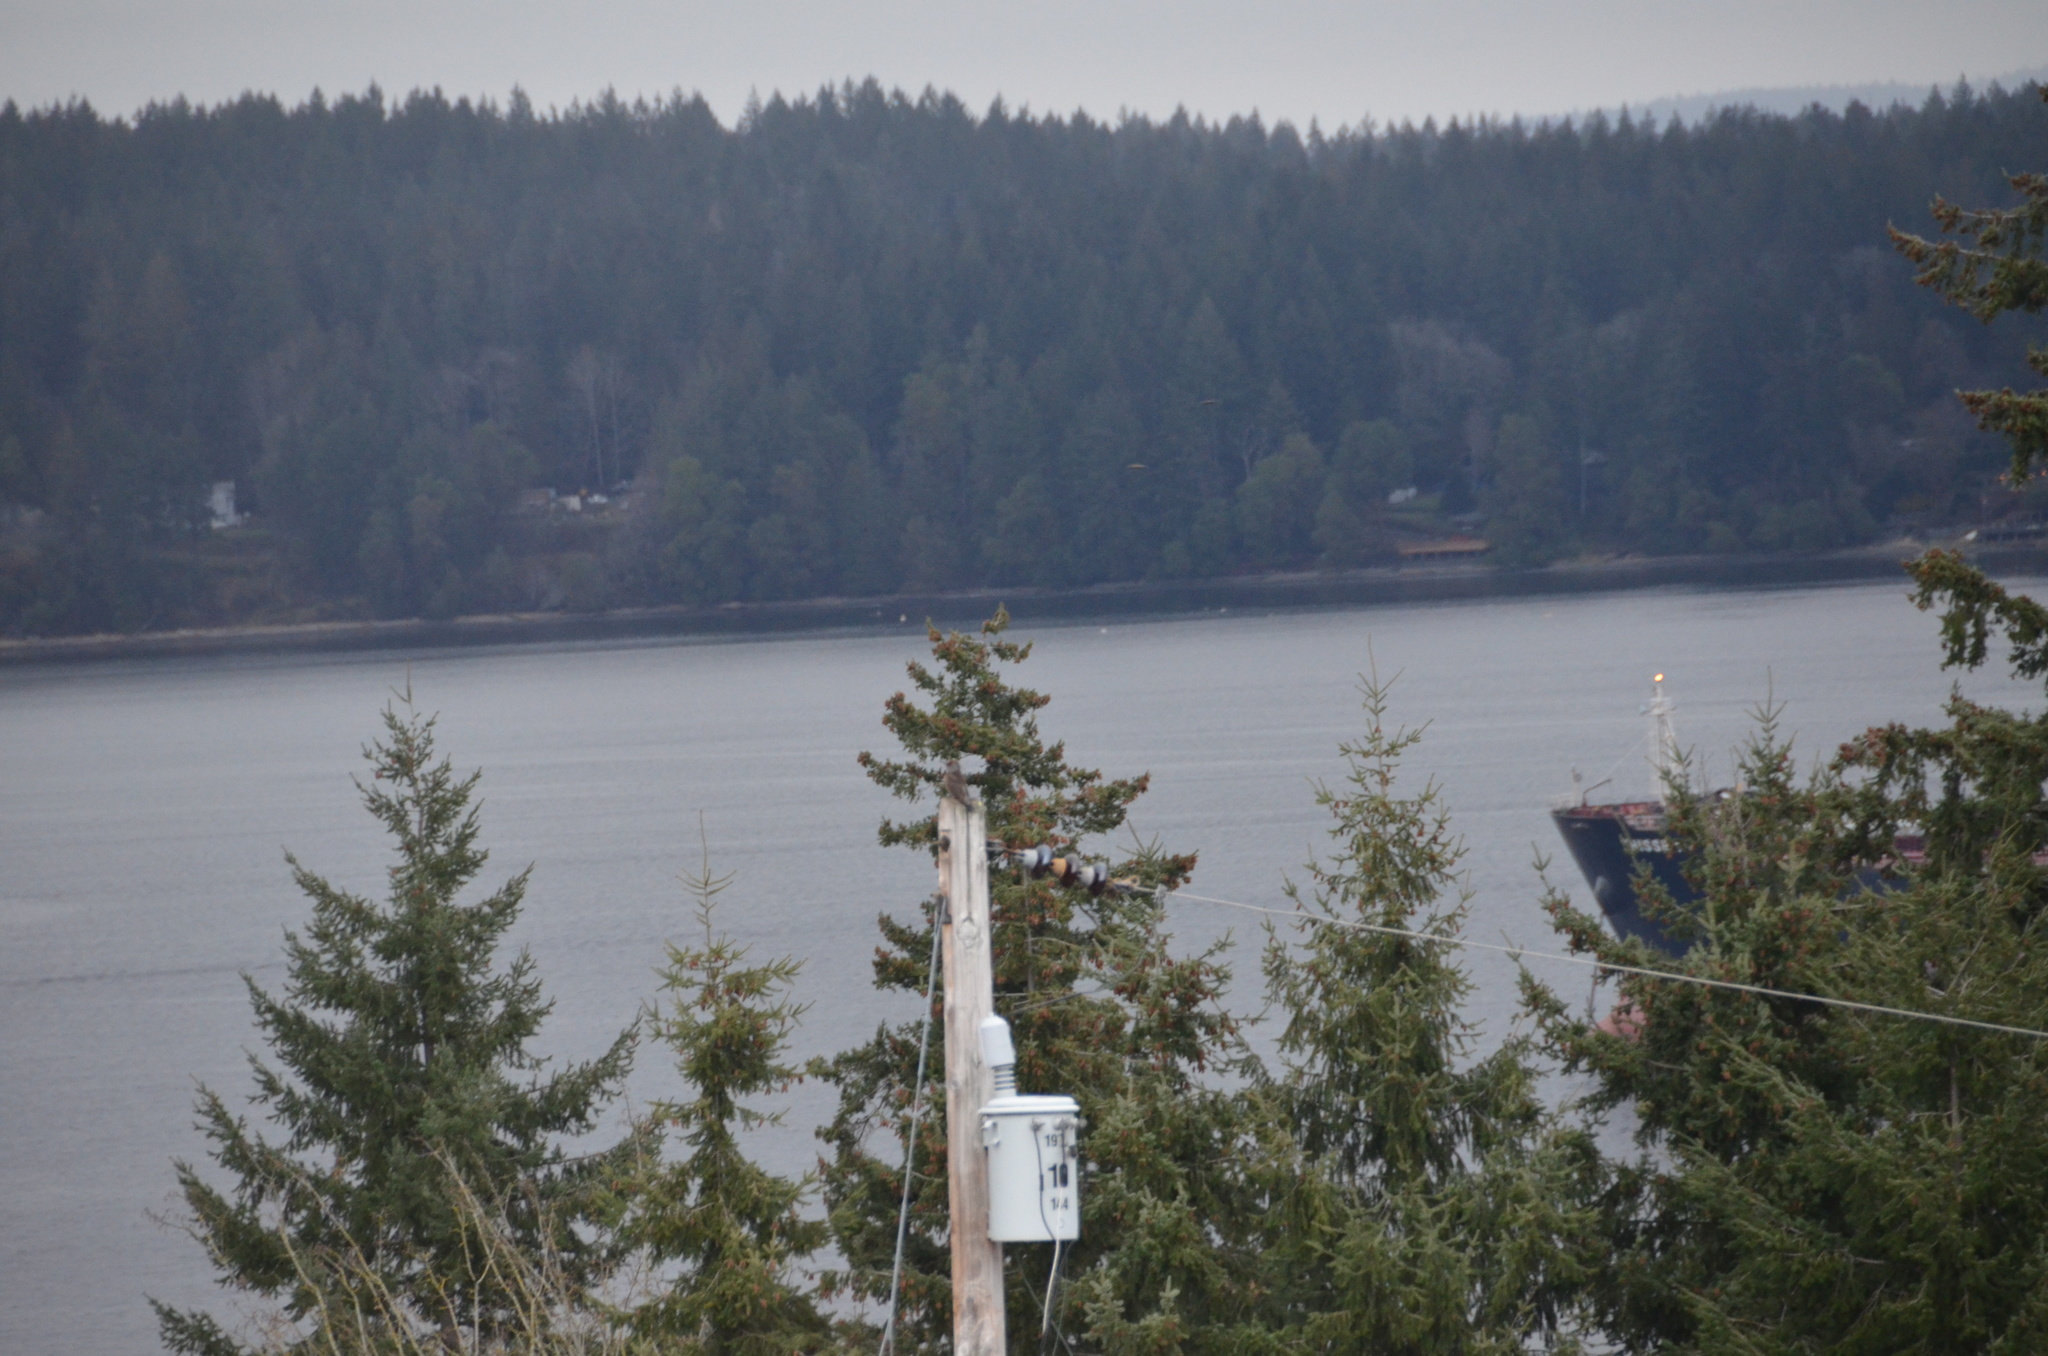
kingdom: Animalia
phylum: Chordata
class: Aves
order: Piciformes
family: Picidae
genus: Colaptes
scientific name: Colaptes auratus
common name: Northern flicker
